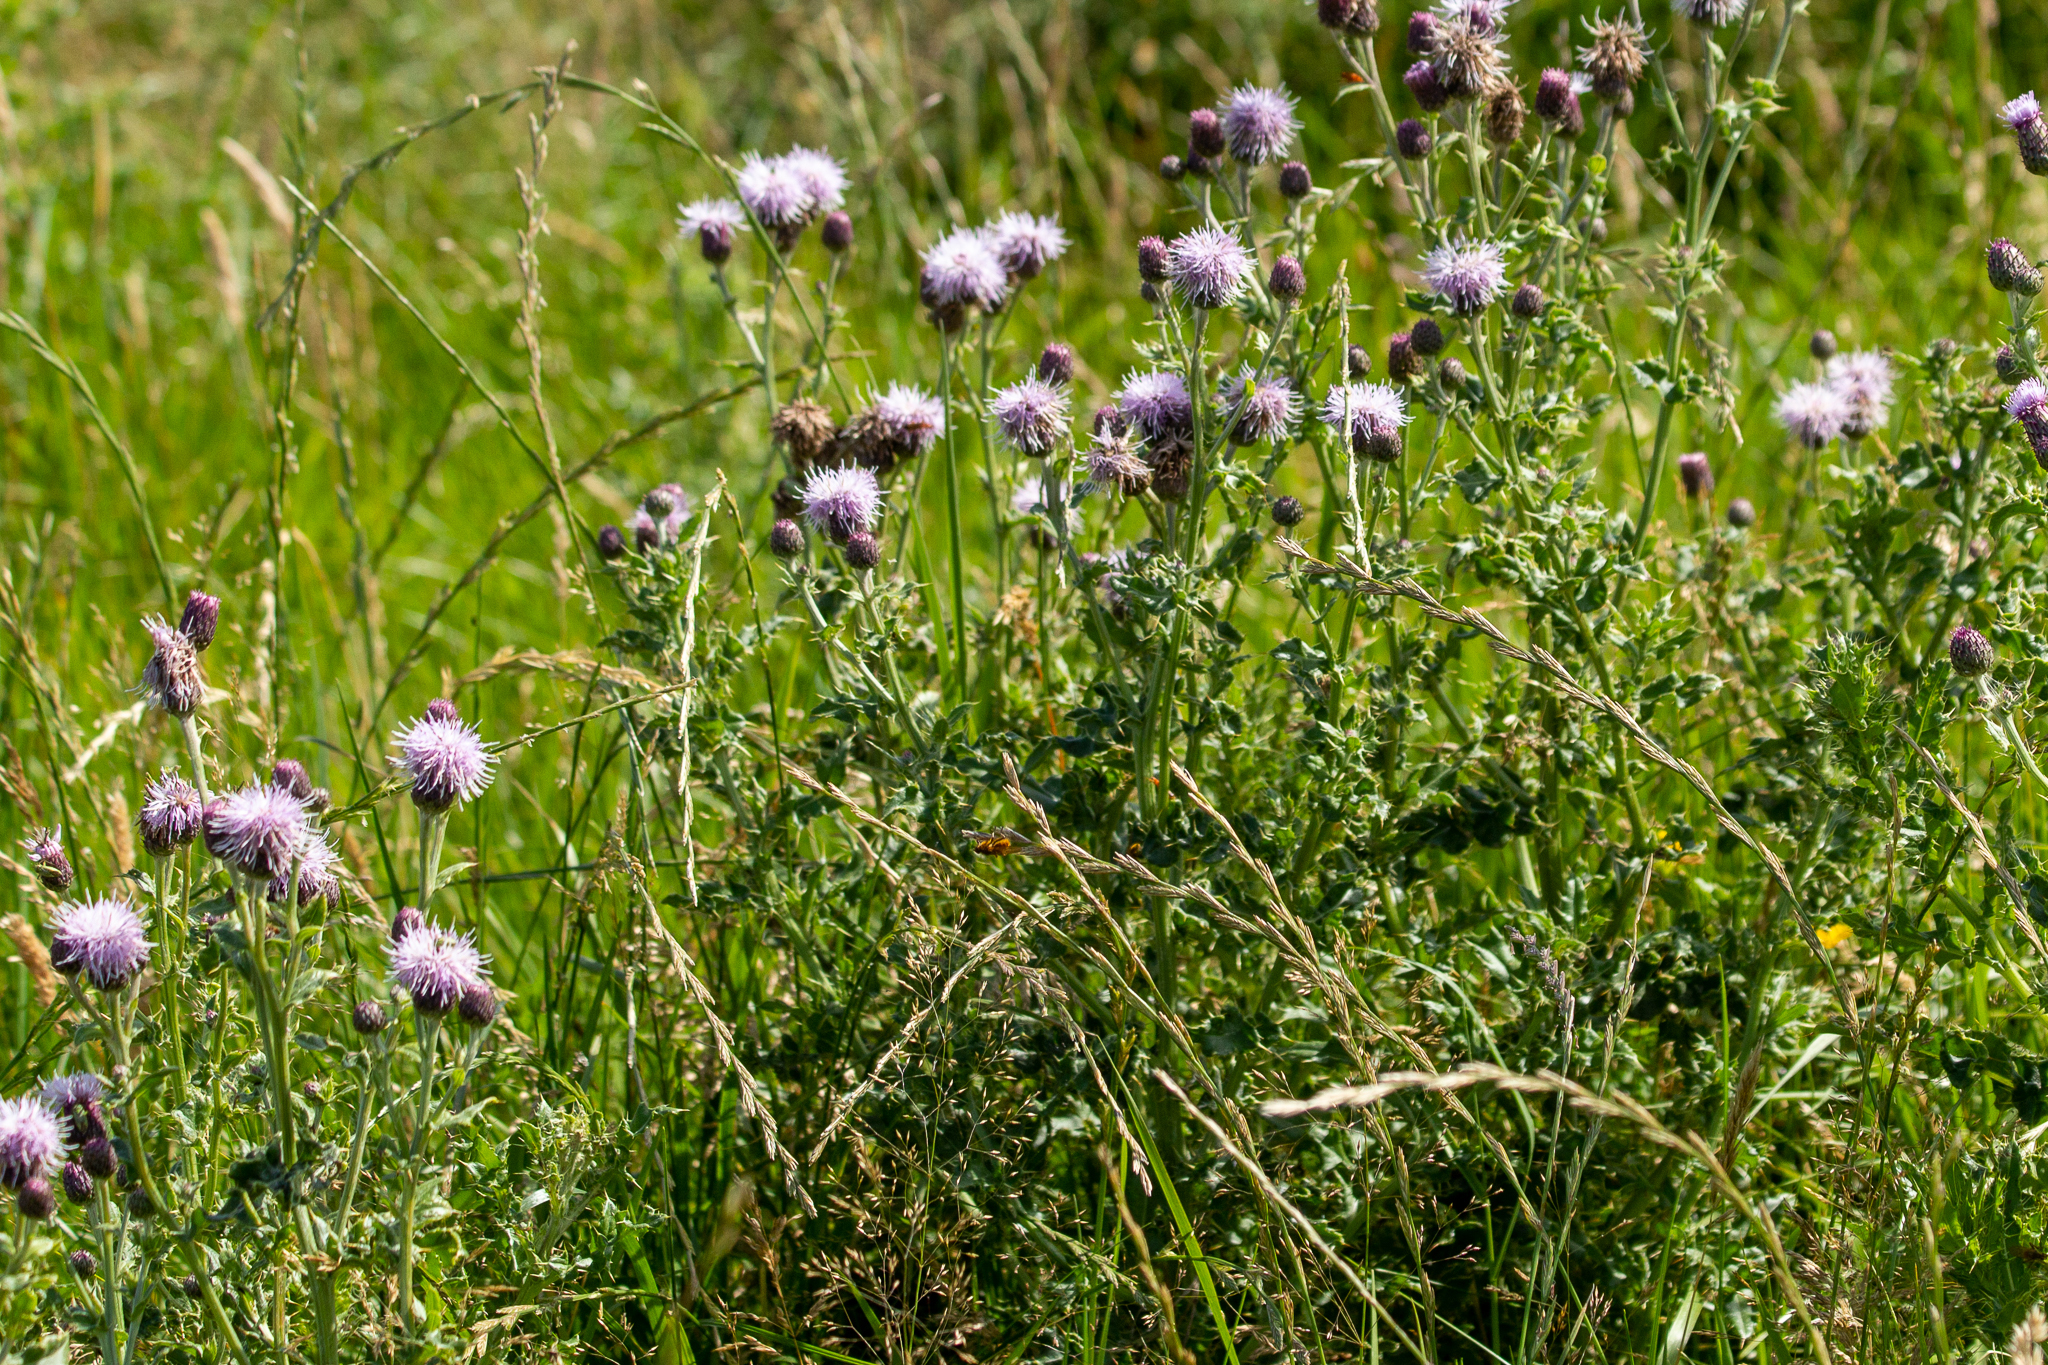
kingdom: Plantae
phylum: Tracheophyta
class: Magnoliopsida
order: Asterales
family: Asteraceae
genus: Cirsium
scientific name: Cirsium arvense
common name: Creeping thistle
